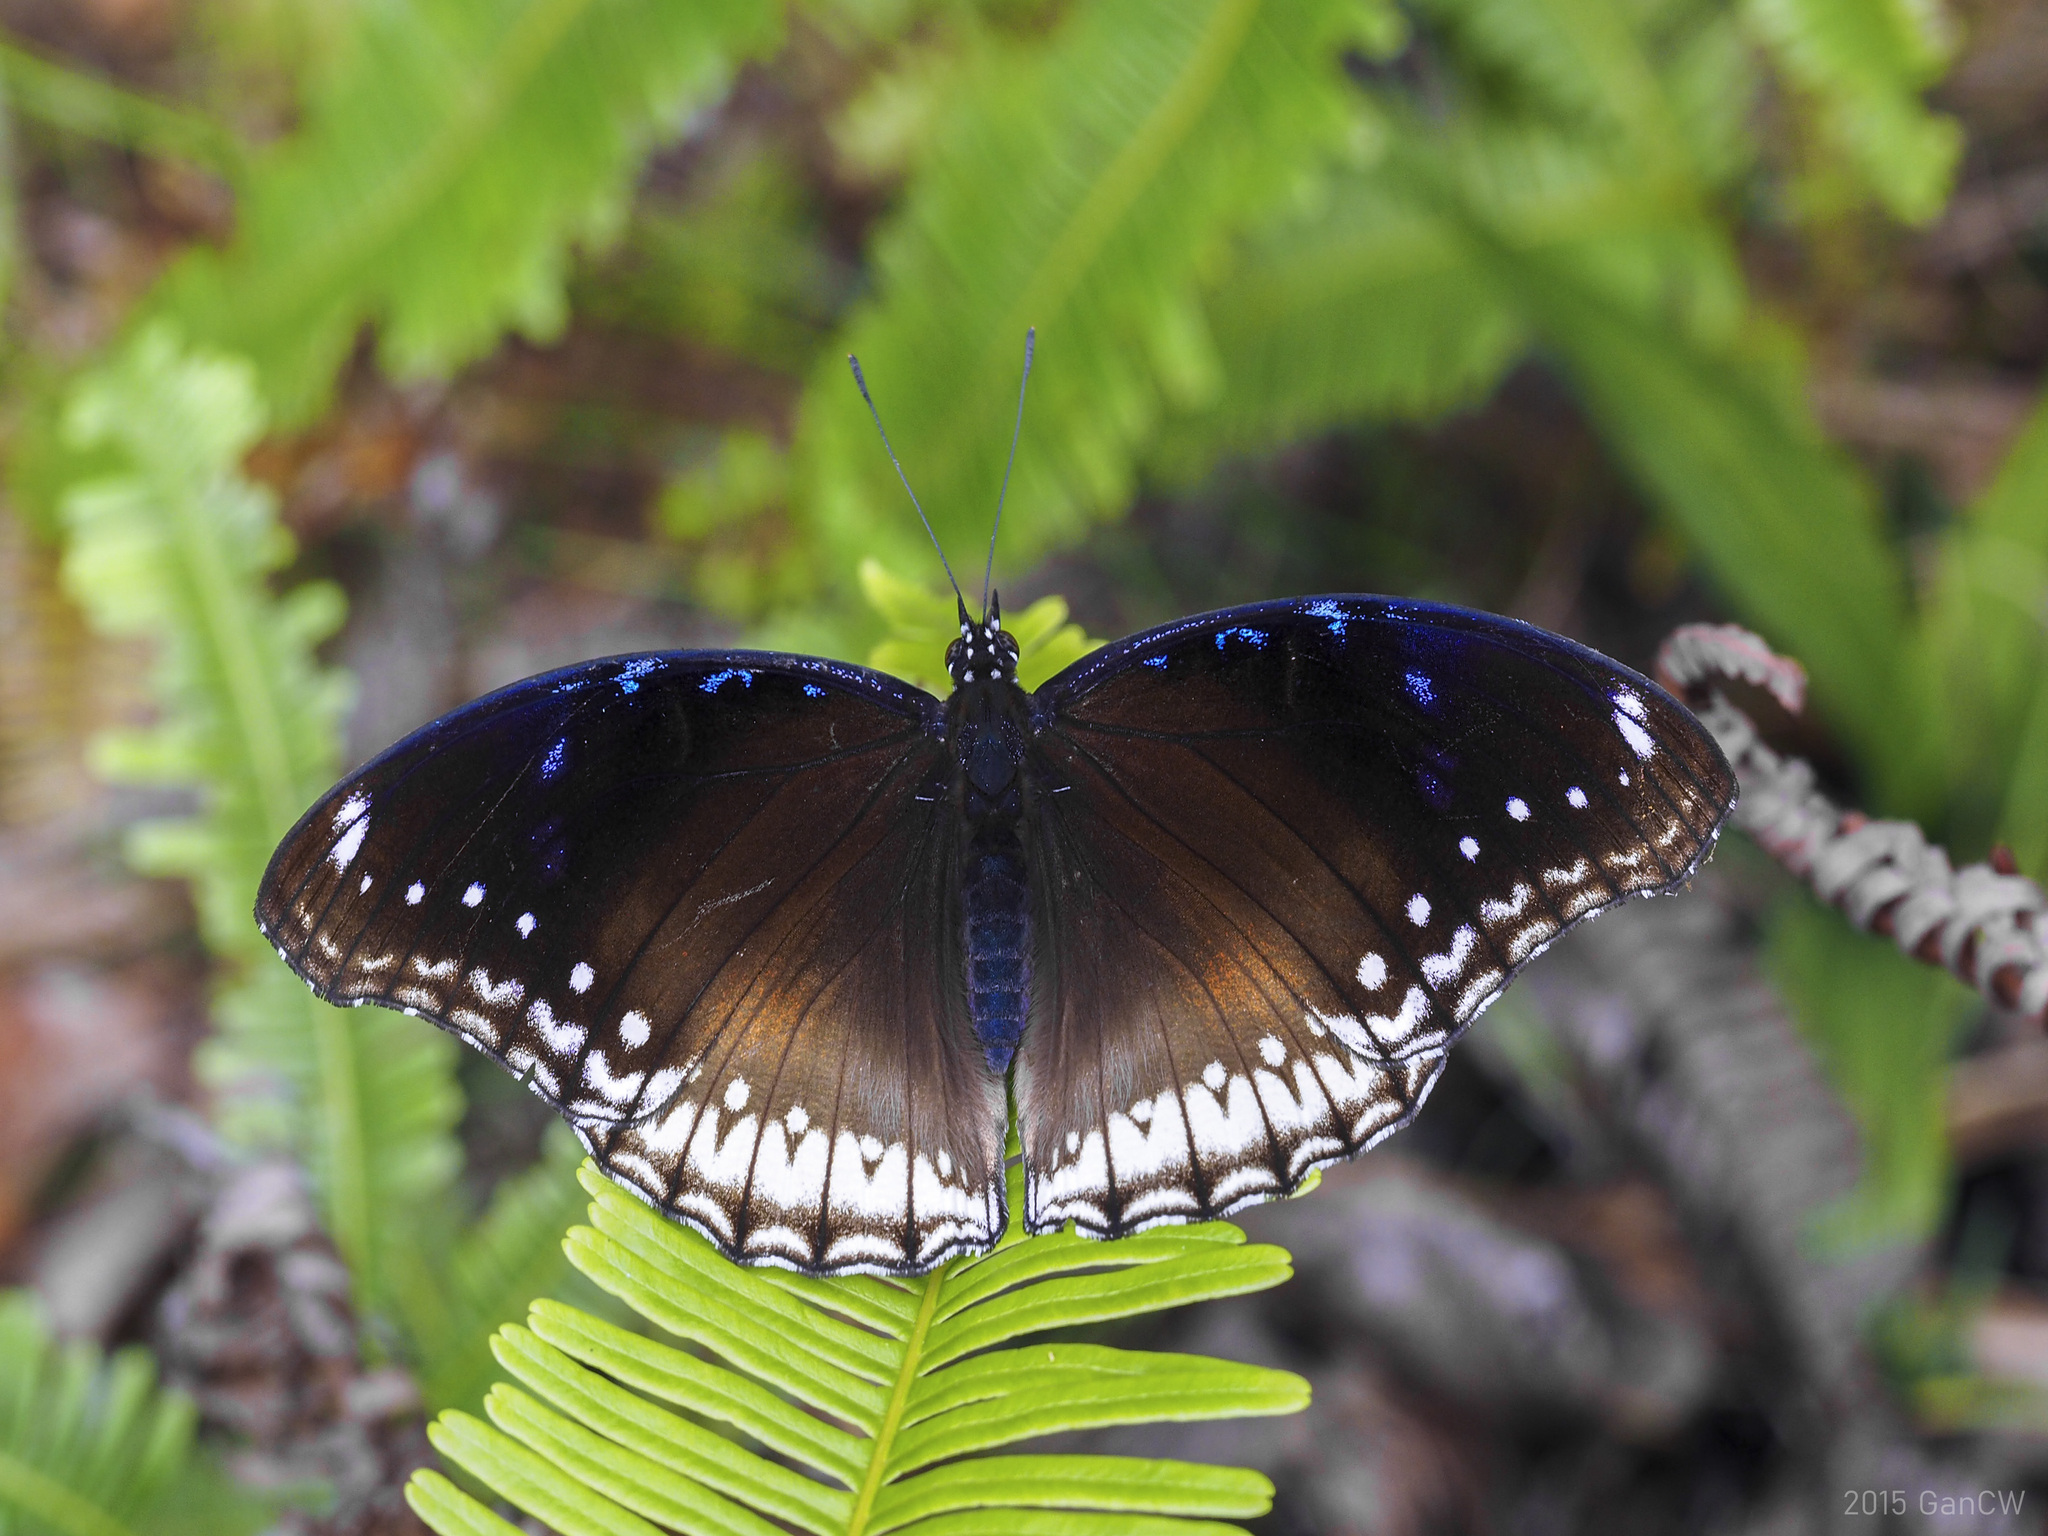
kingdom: Animalia
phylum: Arthropoda
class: Insecta
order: Lepidoptera
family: Nymphalidae
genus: Hypolimnas
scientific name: Hypolimnas bolina
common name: Great eggfly
